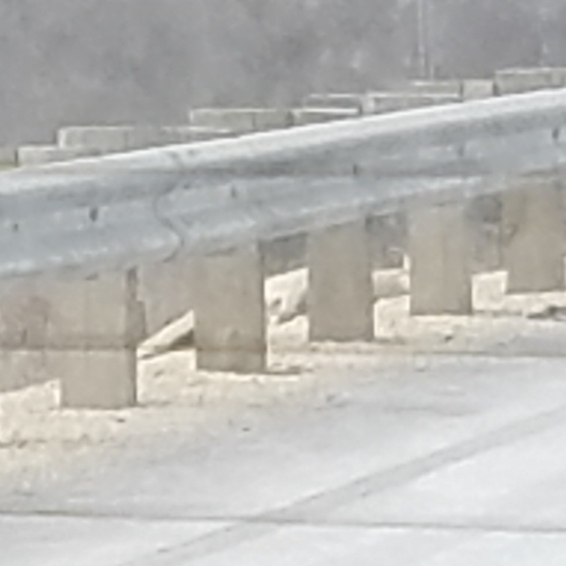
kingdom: Animalia
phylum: Chordata
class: Mammalia
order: Artiodactyla
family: Cervidae
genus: Odocoileus
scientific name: Odocoileus virginianus
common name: White-tailed deer
